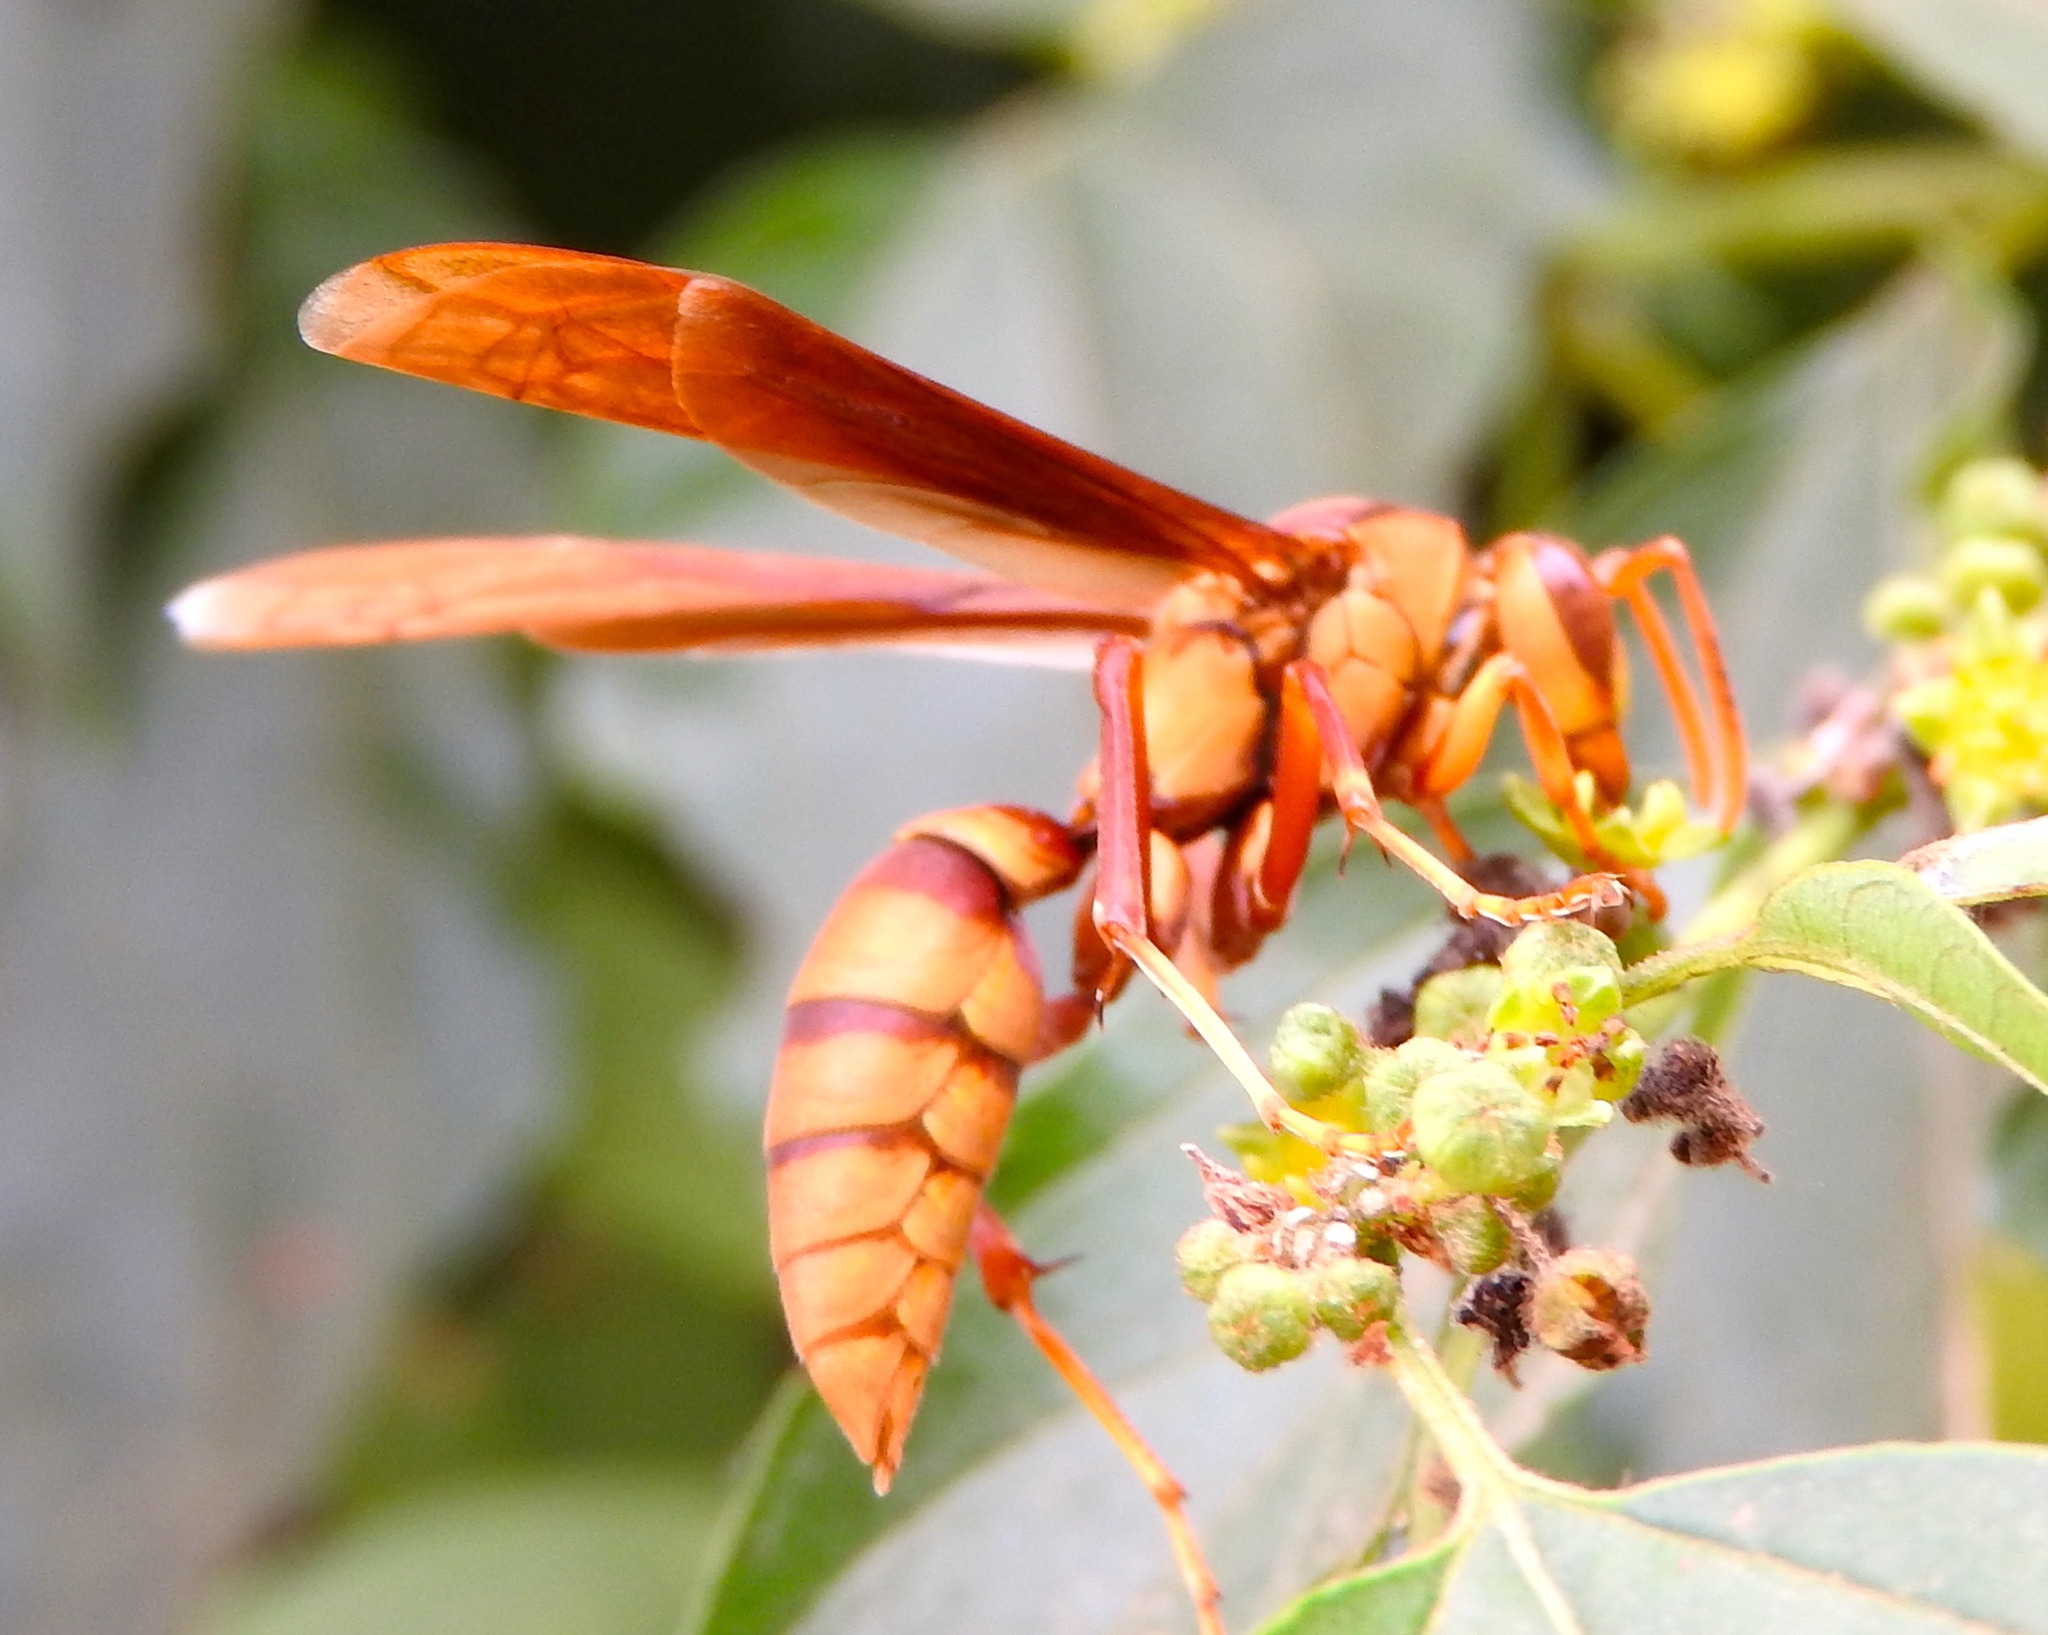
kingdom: Animalia
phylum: Arthropoda
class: Insecta
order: Hymenoptera
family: Eumenidae
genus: Polistes
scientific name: Polistes carnifex
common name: Paper wasp
